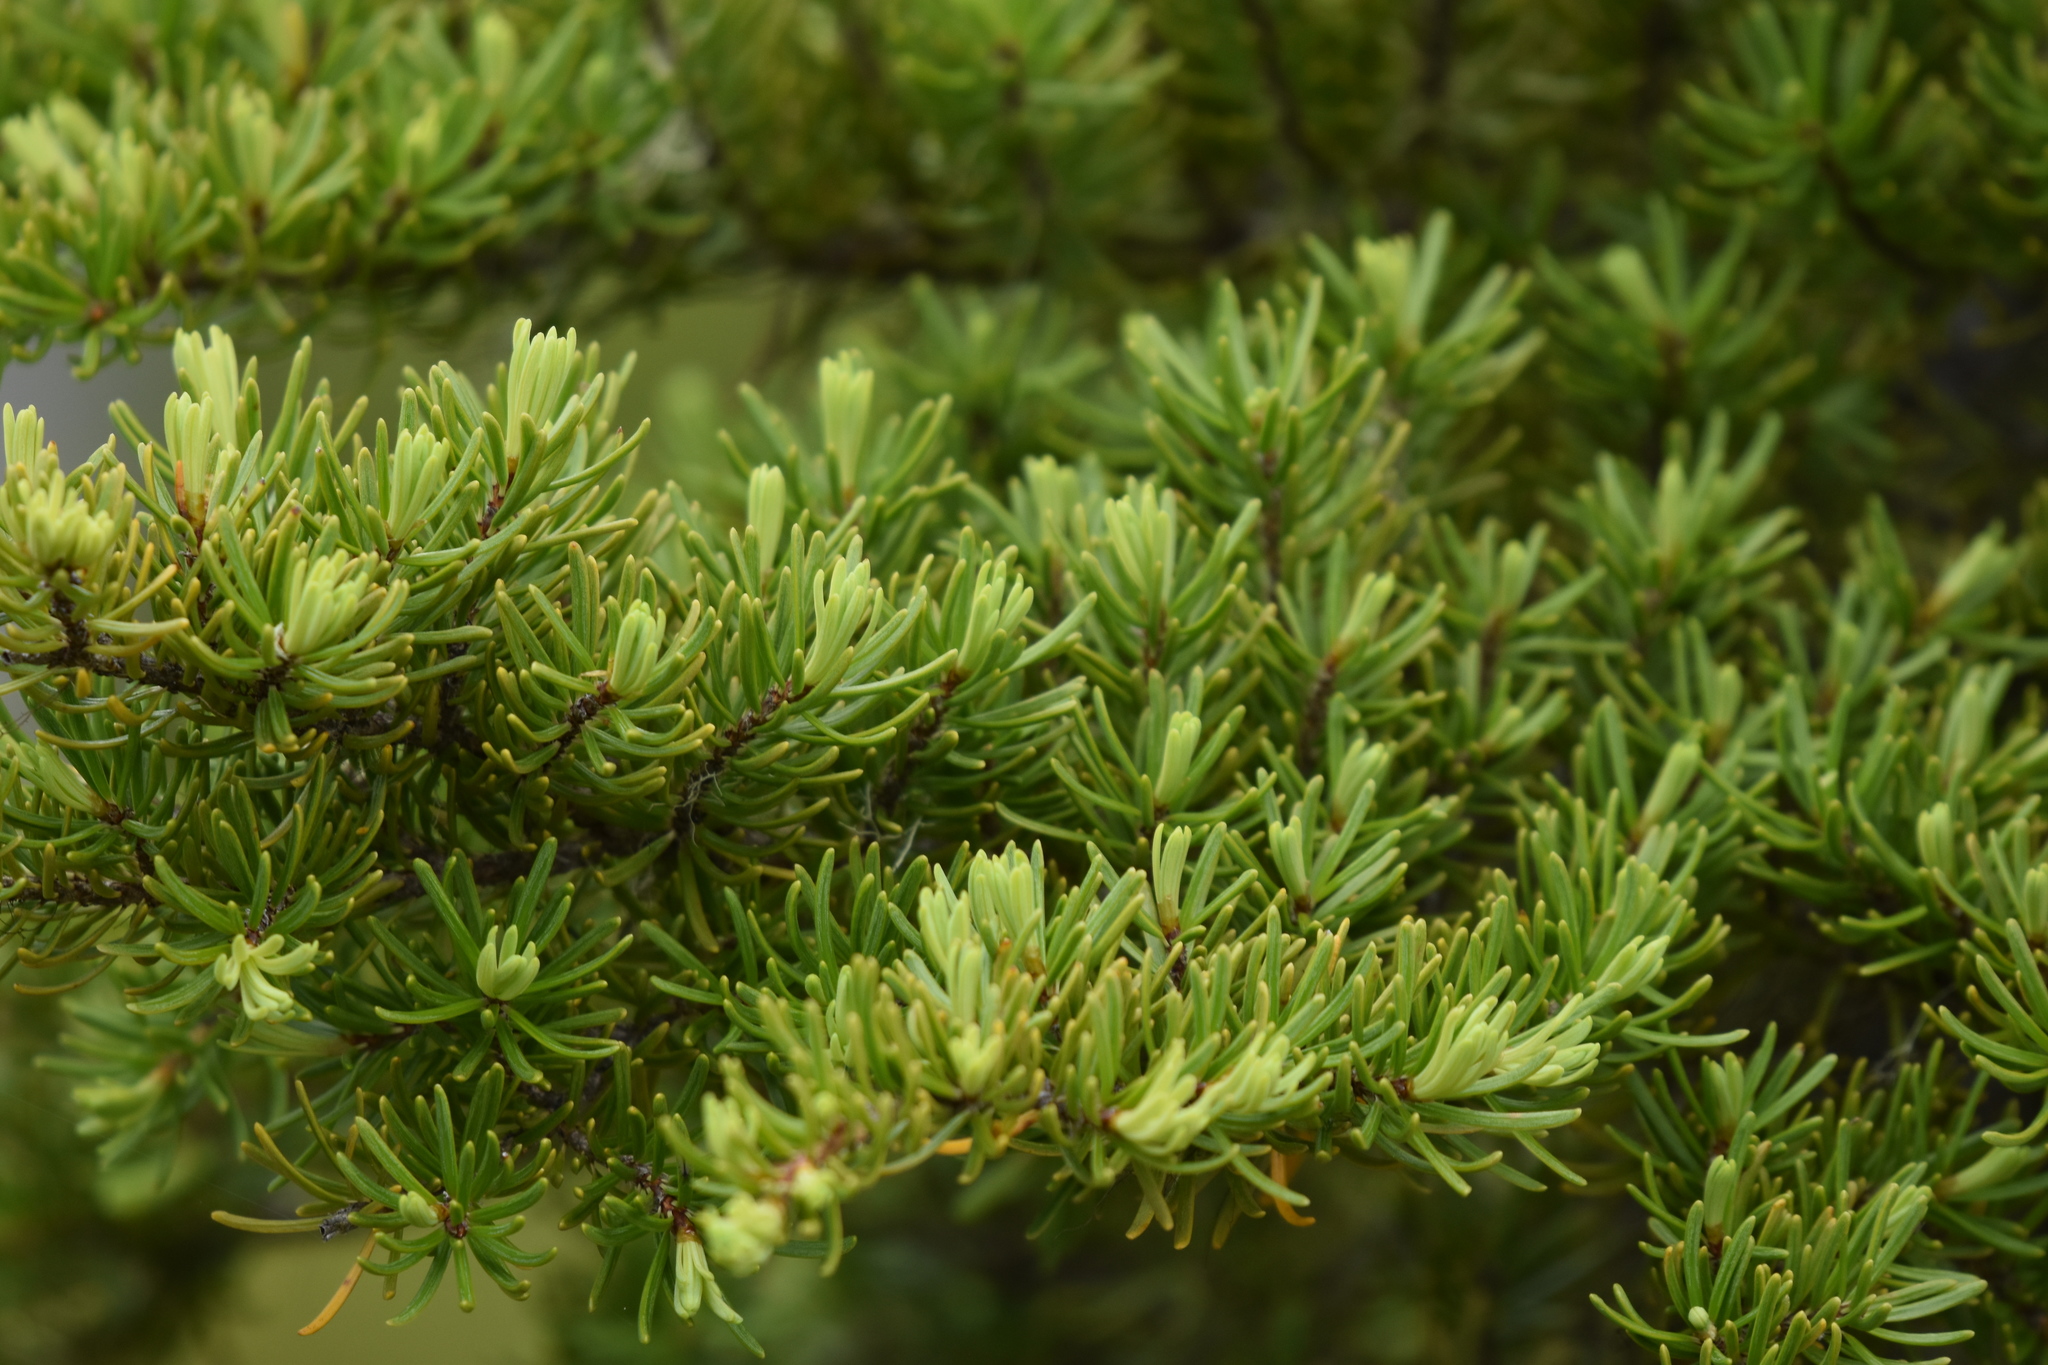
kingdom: Plantae
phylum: Tracheophyta
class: Pinopsida
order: Pinales
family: Pinaceae
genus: Tsuga
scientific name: Tsuga mertensiana
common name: Mountain hemlock
